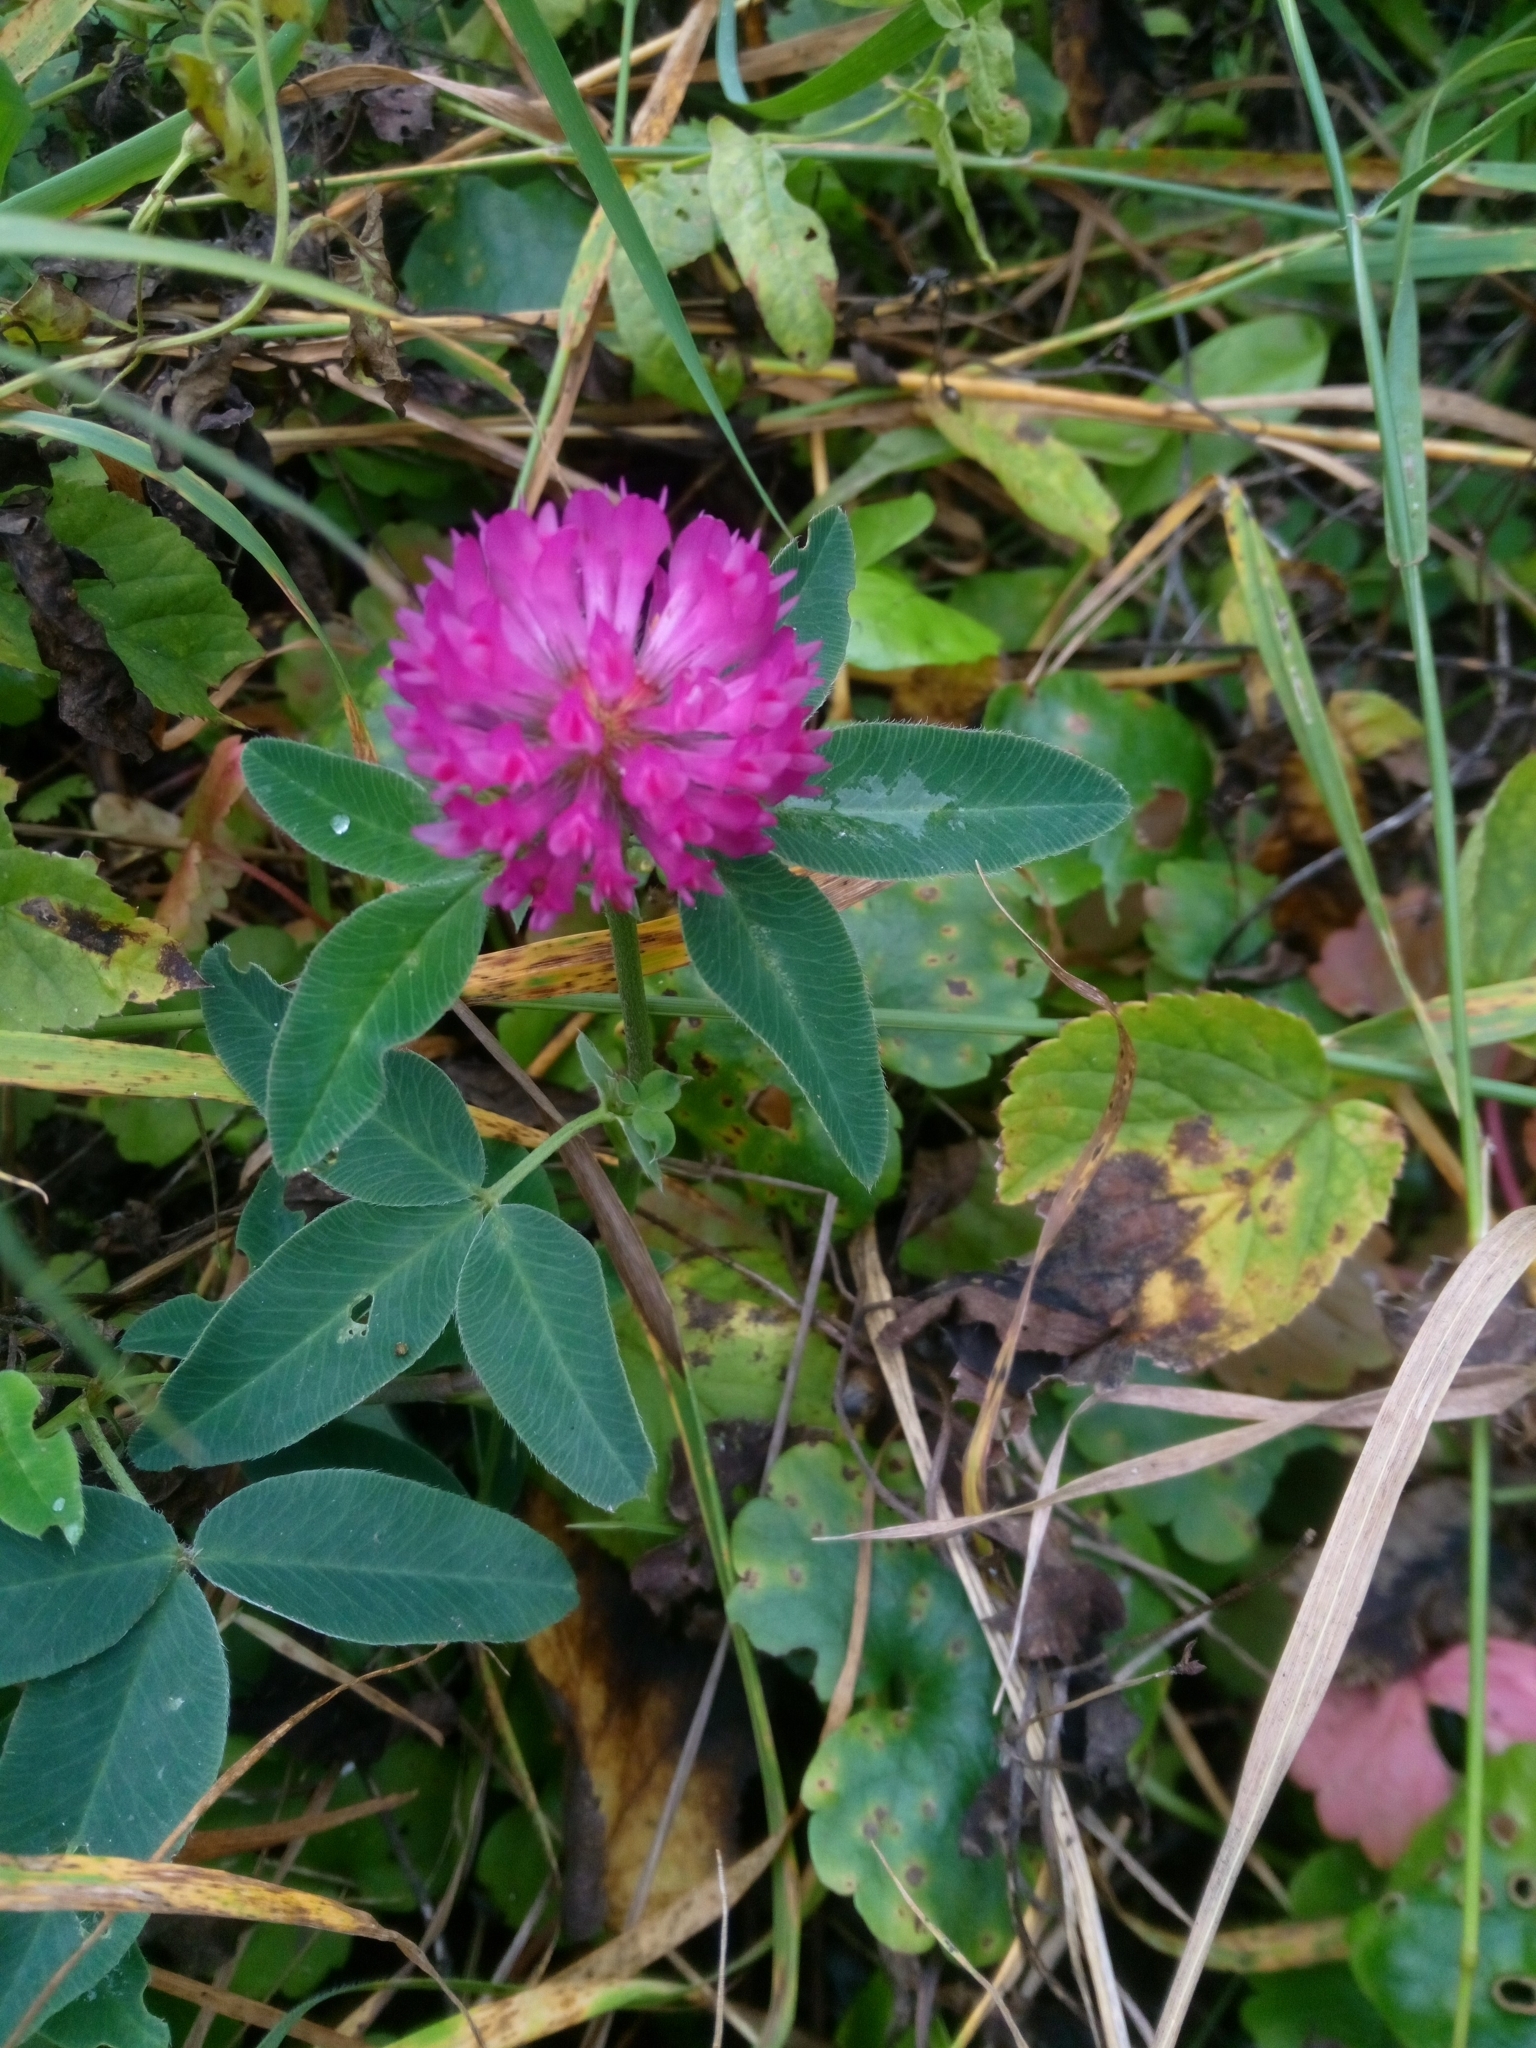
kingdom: Plantae
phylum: Tracheophyta
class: Magnoliopsida
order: Fabales
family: Fabaceae
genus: Trifolium
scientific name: Trifolium medium
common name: Zigzag clover
